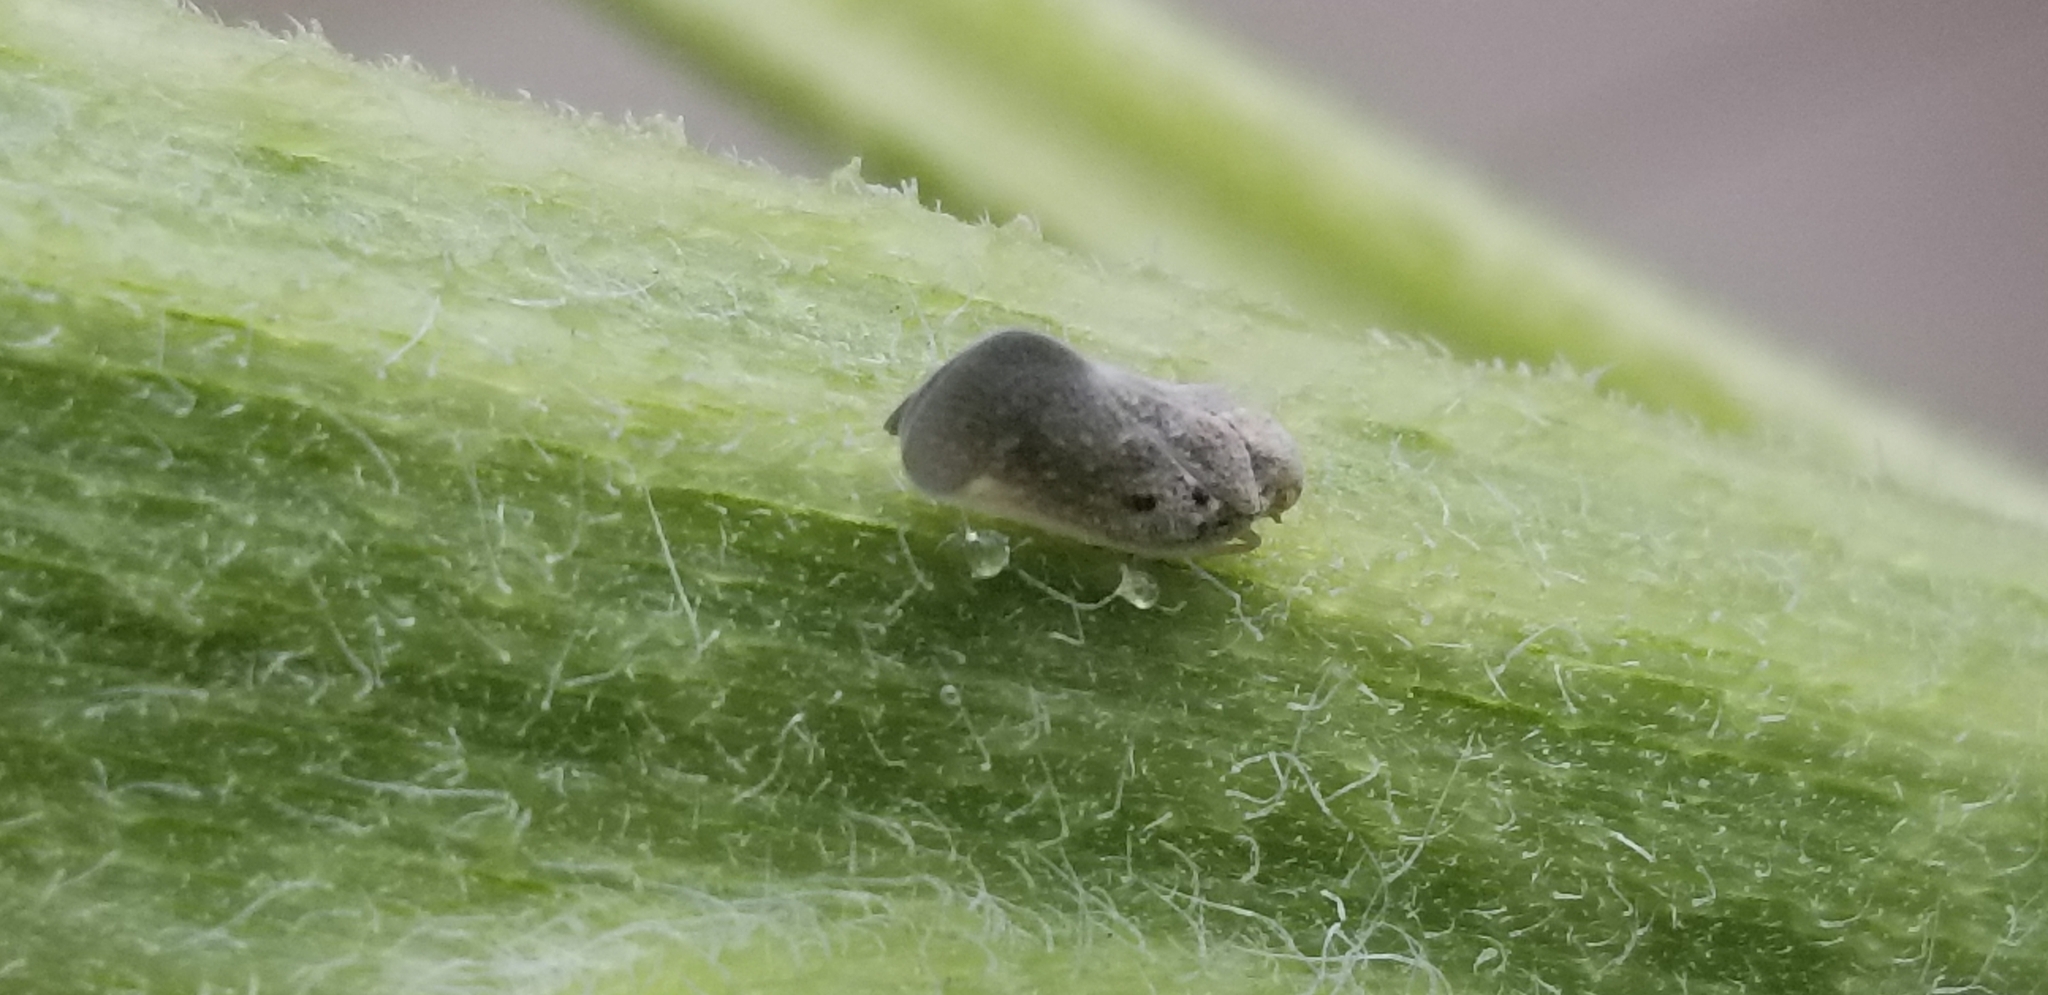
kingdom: Animalia
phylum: Arthropoda
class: Insecta
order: Hemiptera
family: Flatidae
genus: Metcalfa
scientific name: Metcalfa pruinosa
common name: Citrus flatid planthopper
